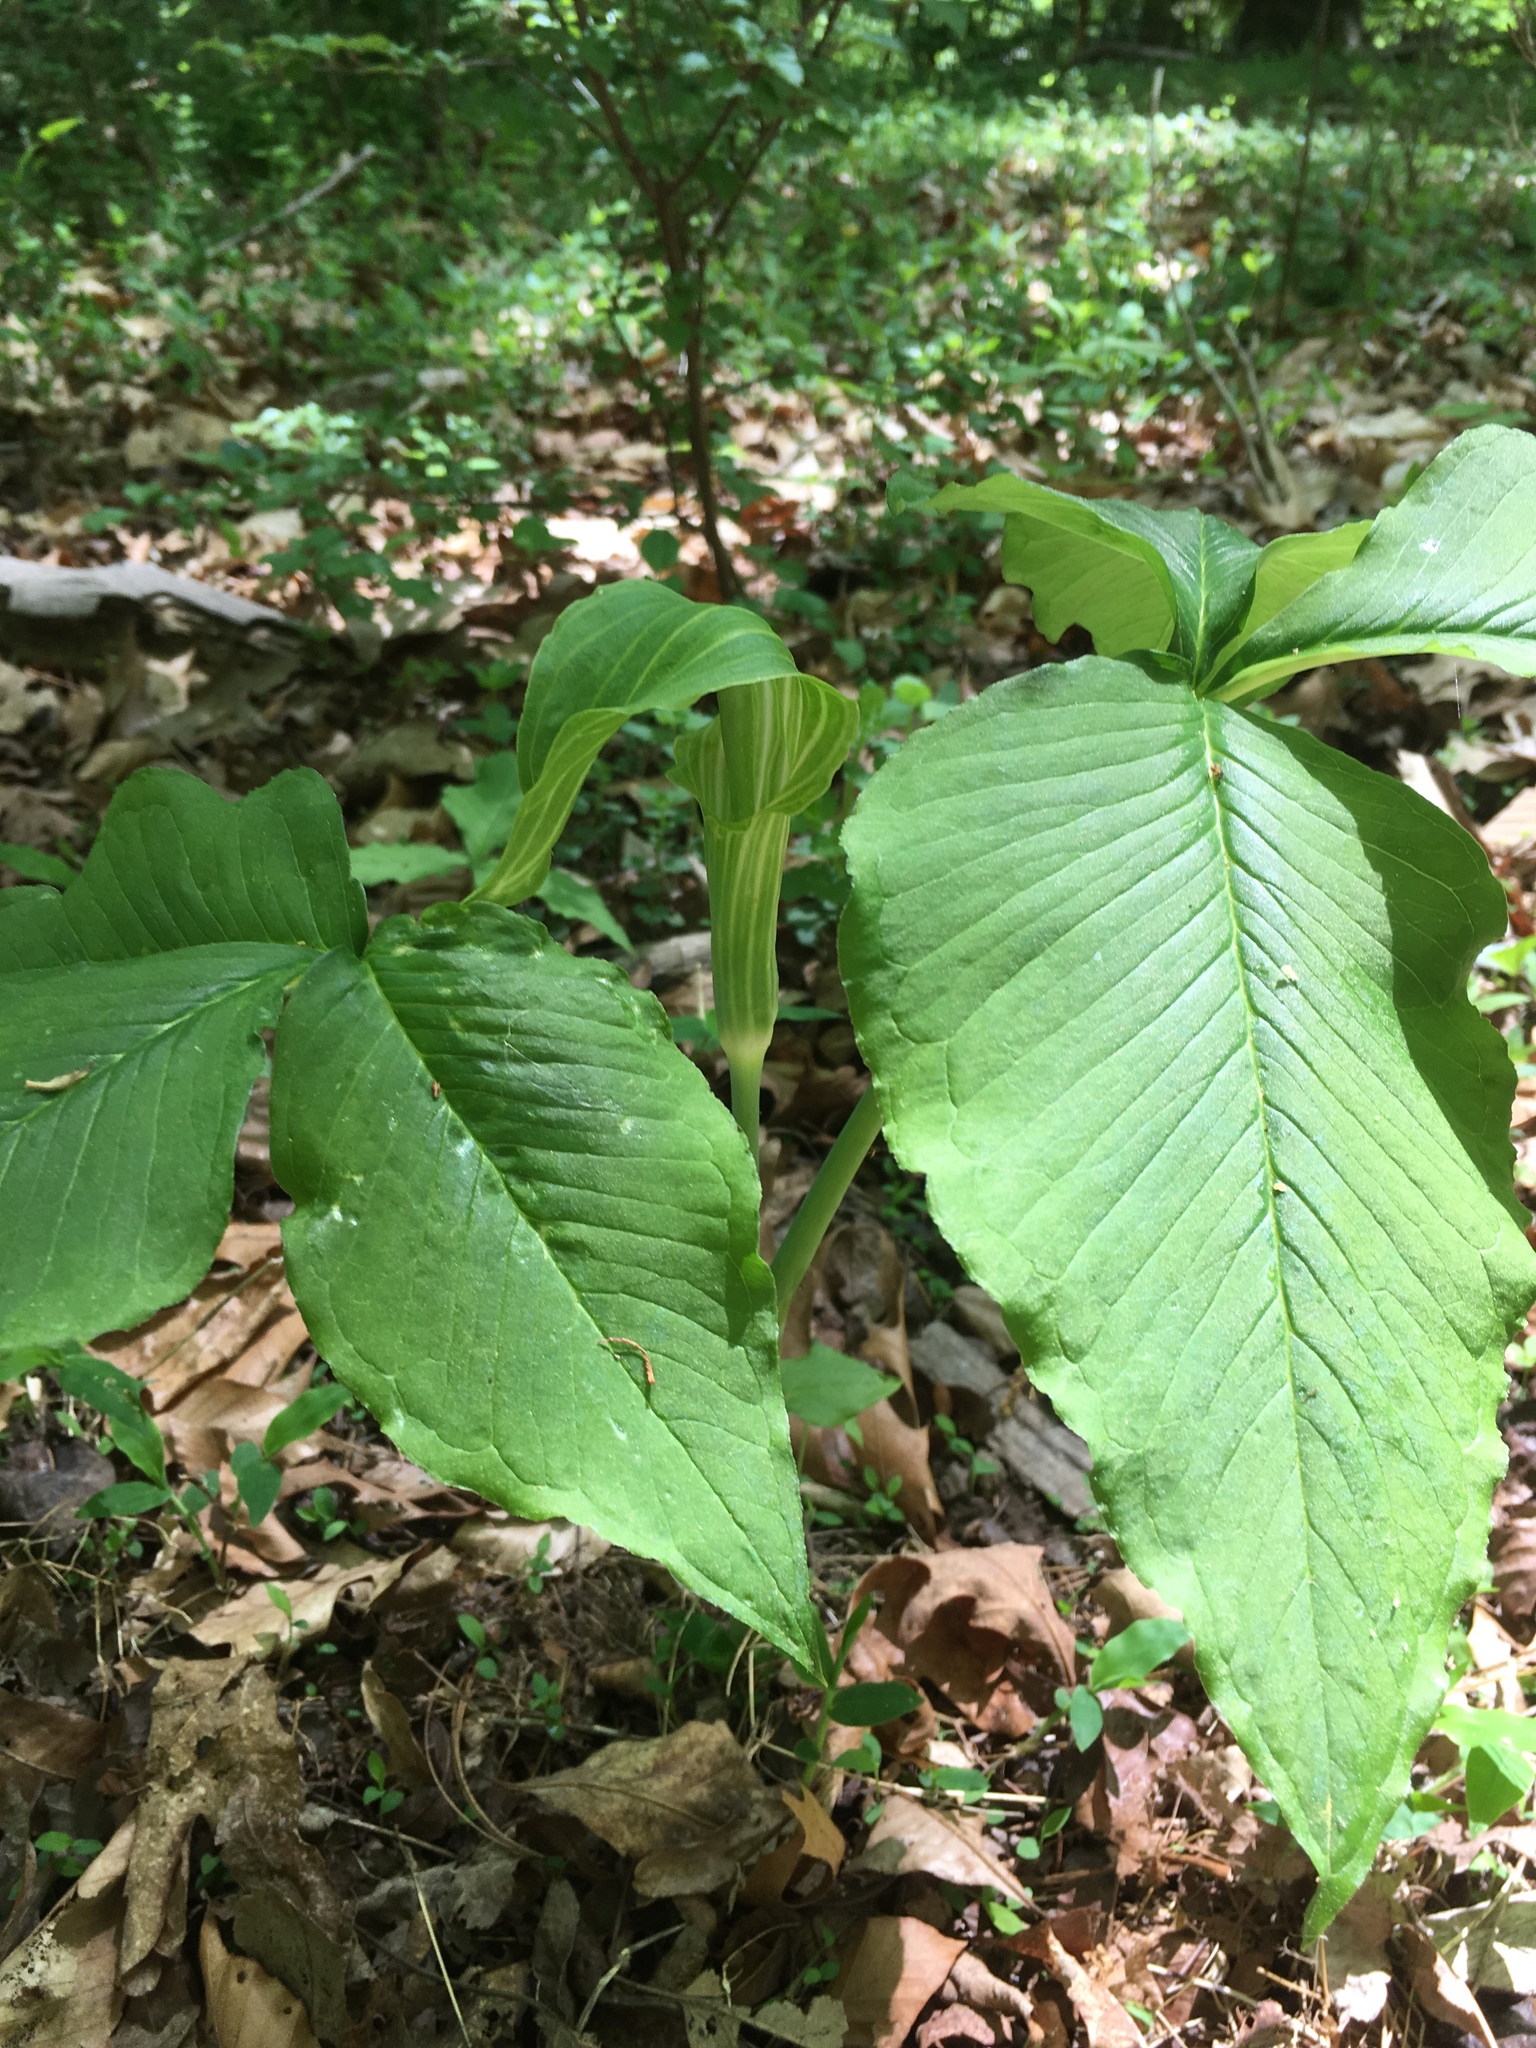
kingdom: Plantae
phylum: Tracheophyta
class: Liliopsida
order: Alismatales
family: Araceae
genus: Arisaema
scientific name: Arisaema triphyllum
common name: Jack-in-the-pulpit
